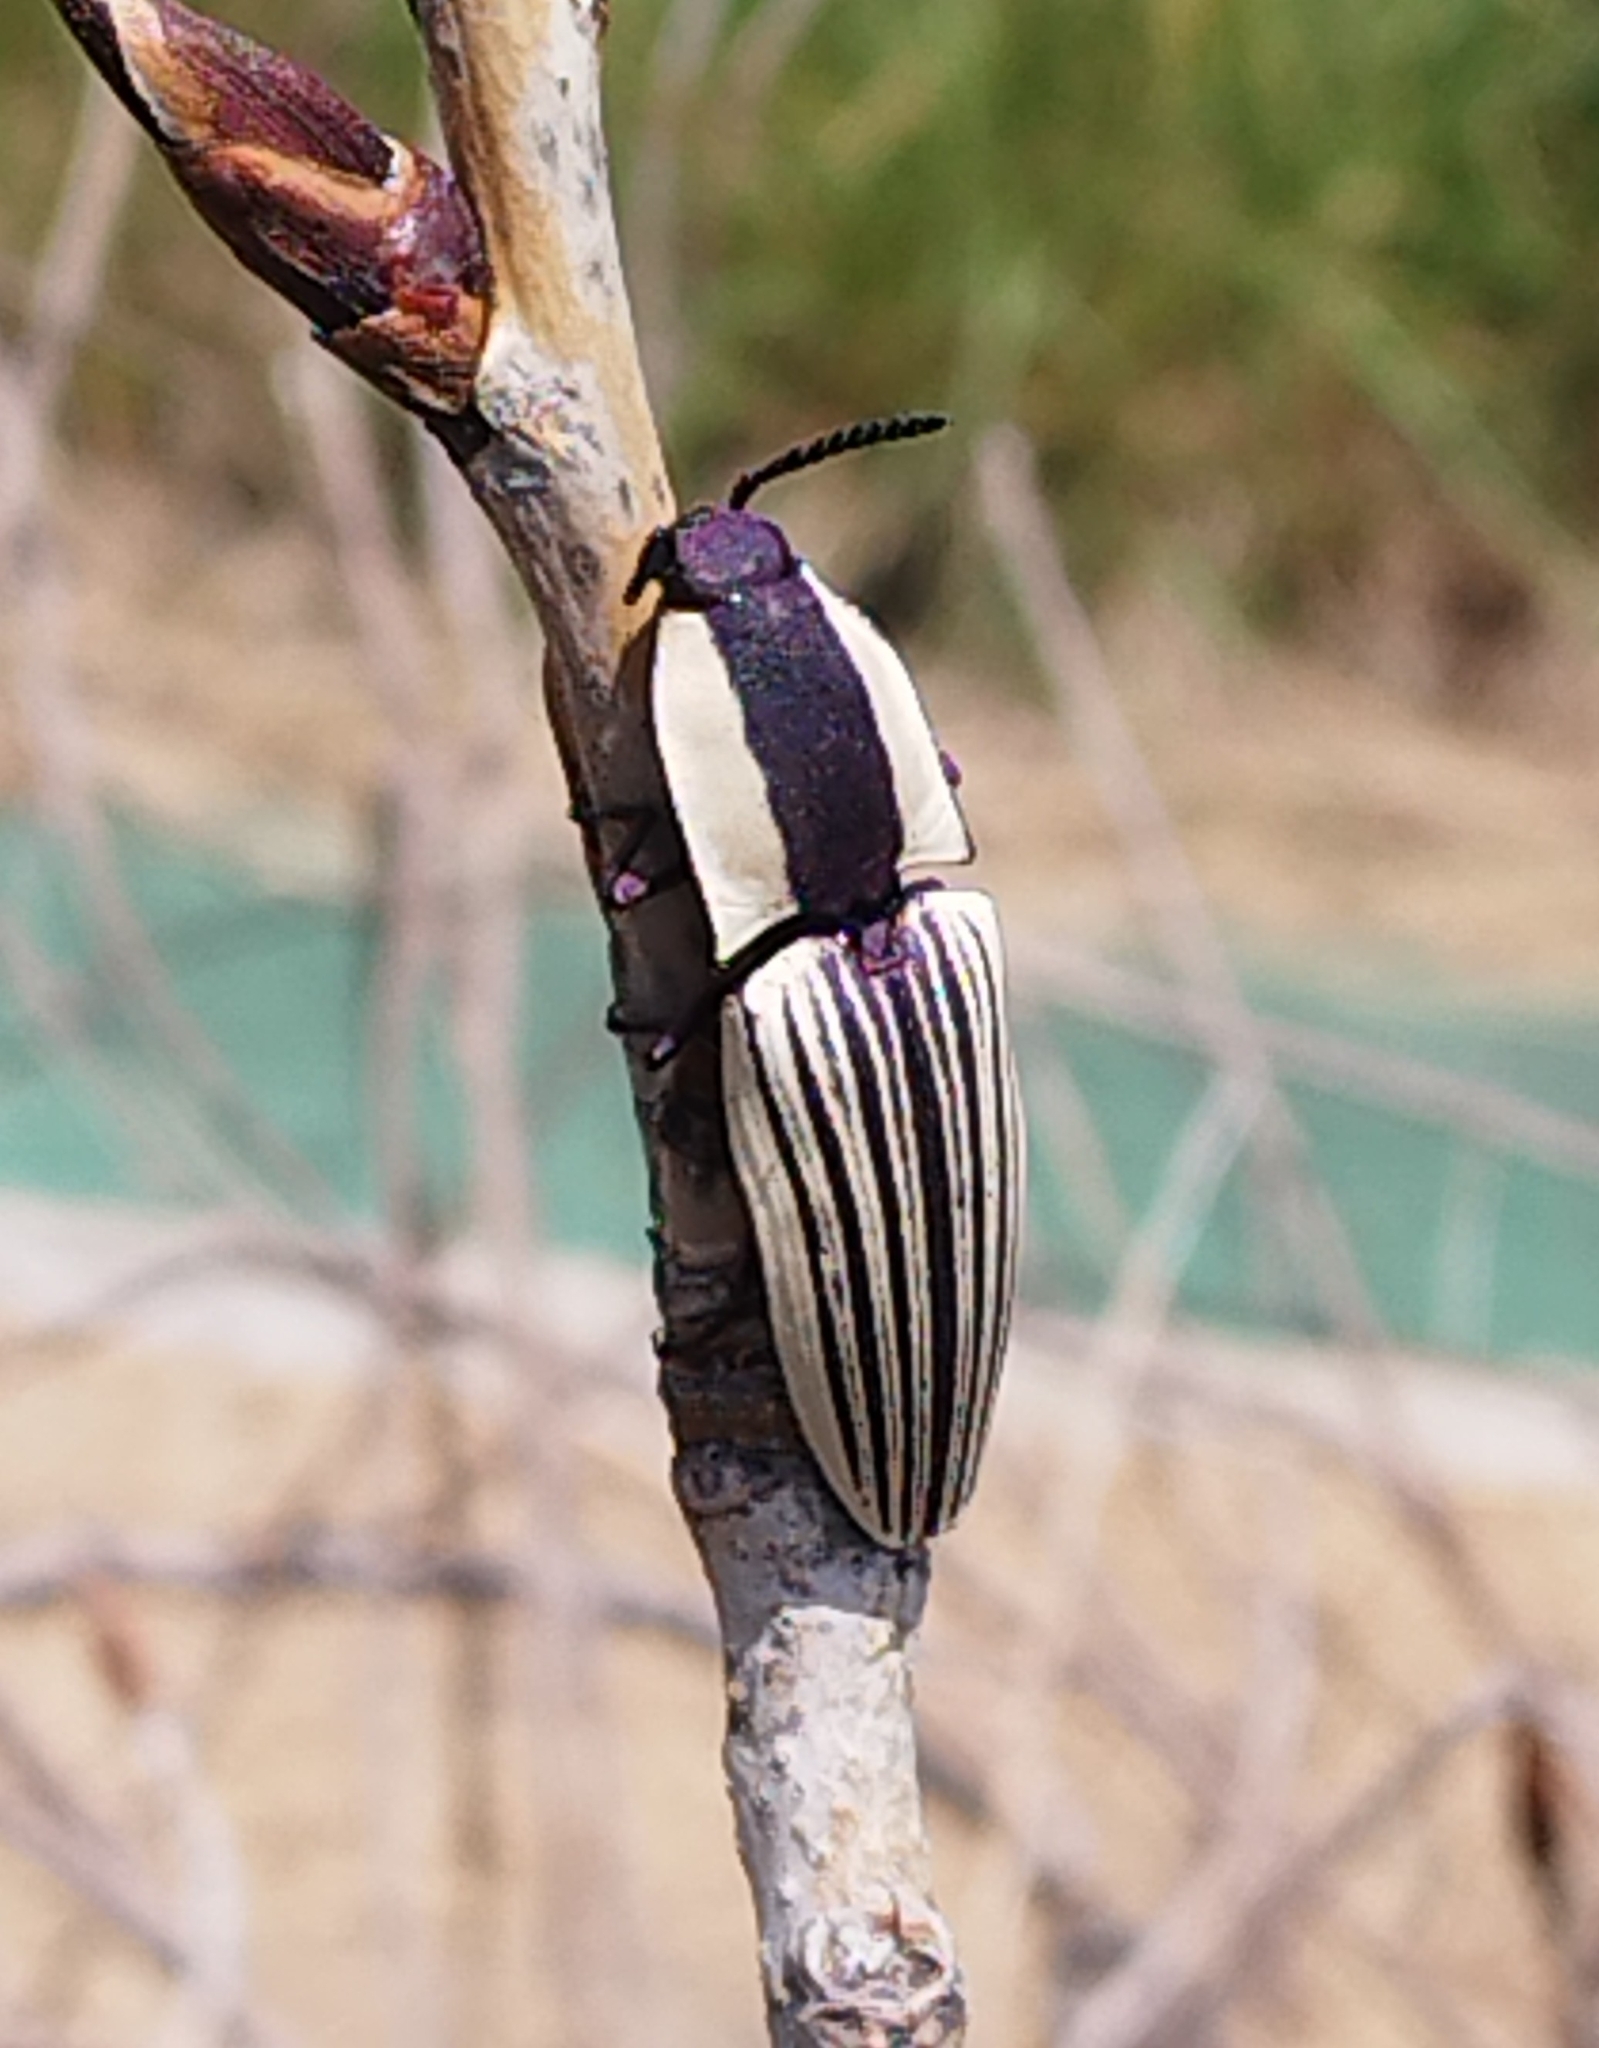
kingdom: Animalia
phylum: Arthropoda
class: Insecta
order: Coleoptera
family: Elateridae
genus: Chalcolepidius
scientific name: Chalcolepidius
